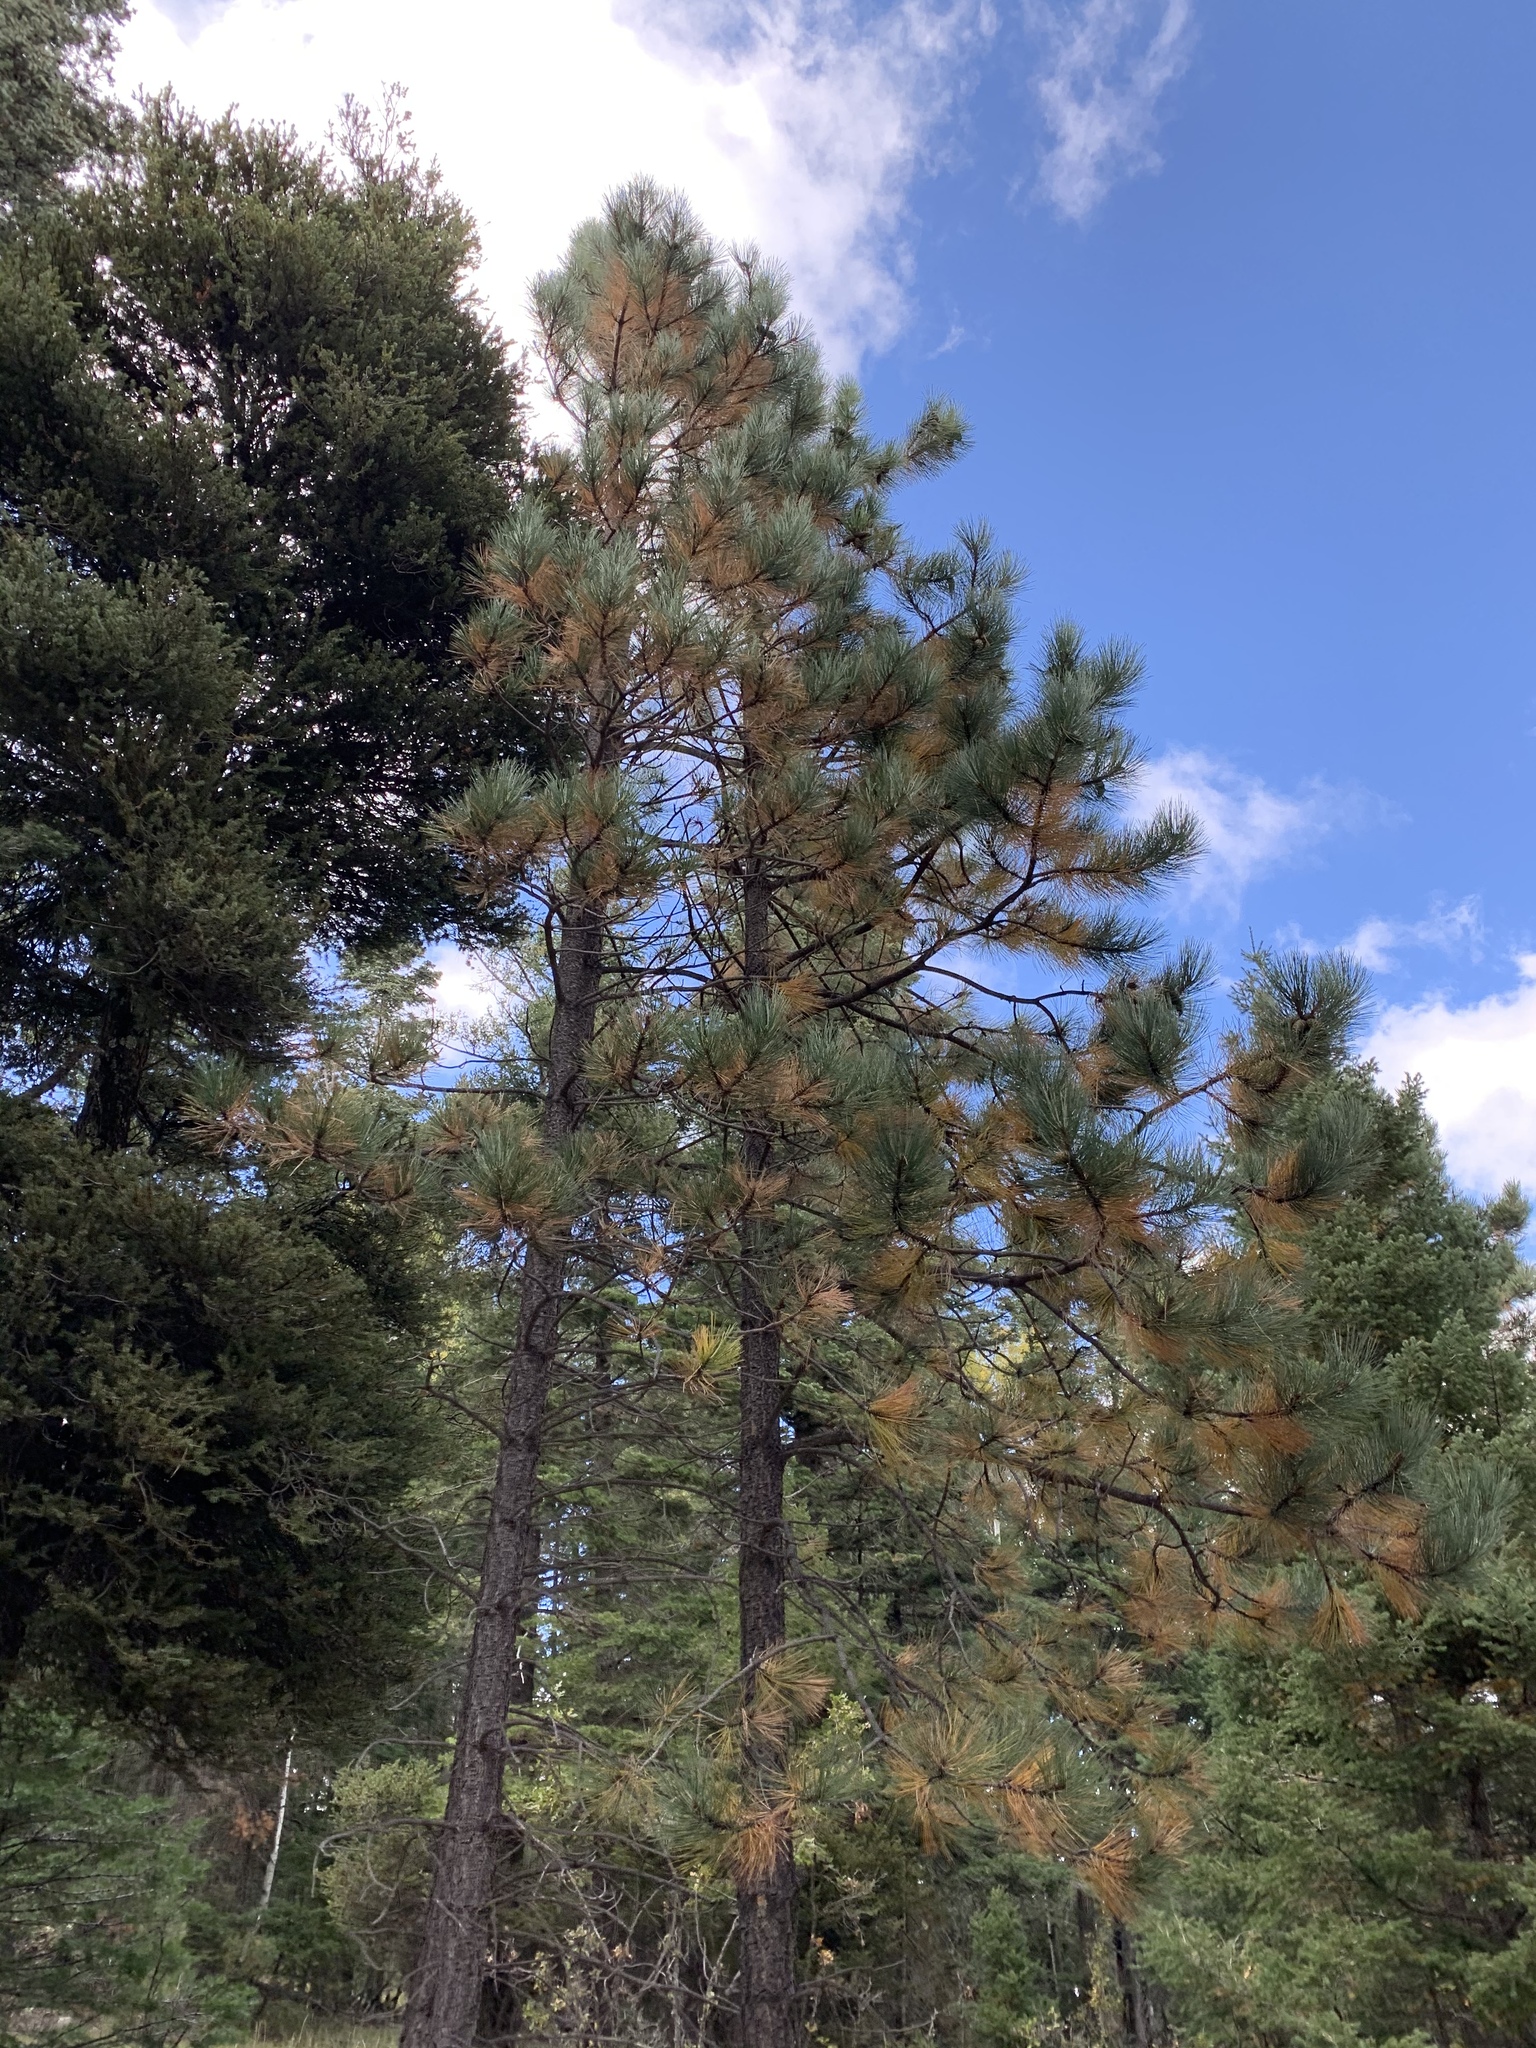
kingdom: Plantae
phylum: Tracheophyta
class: Pinopsida
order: Pinales
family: Pinaceae
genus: Pinus
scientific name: Pinus ponderosa
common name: Western yellow-pine
